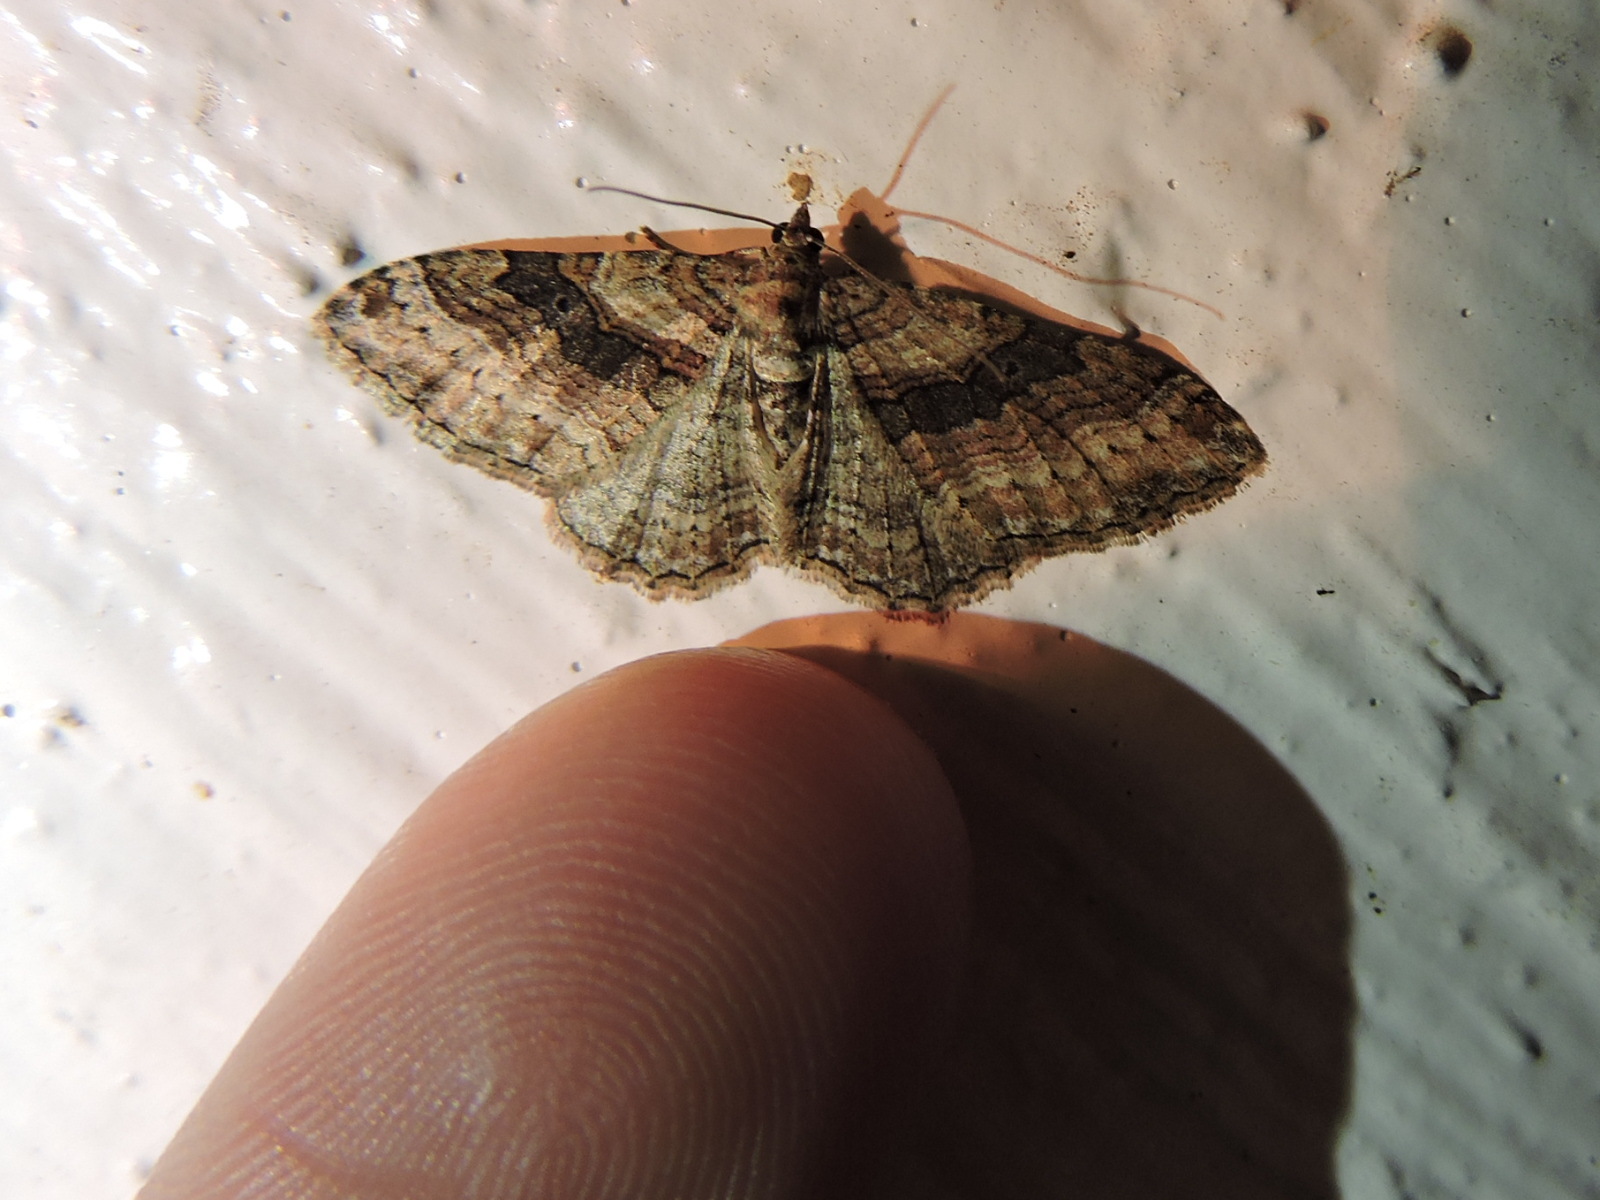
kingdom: Animalia
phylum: Arthropoda
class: Insecta
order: Lepidoptera
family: Geometridae
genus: Costaconvexa
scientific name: Costaconvexa centrostrigaria
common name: Bent-line carpet
